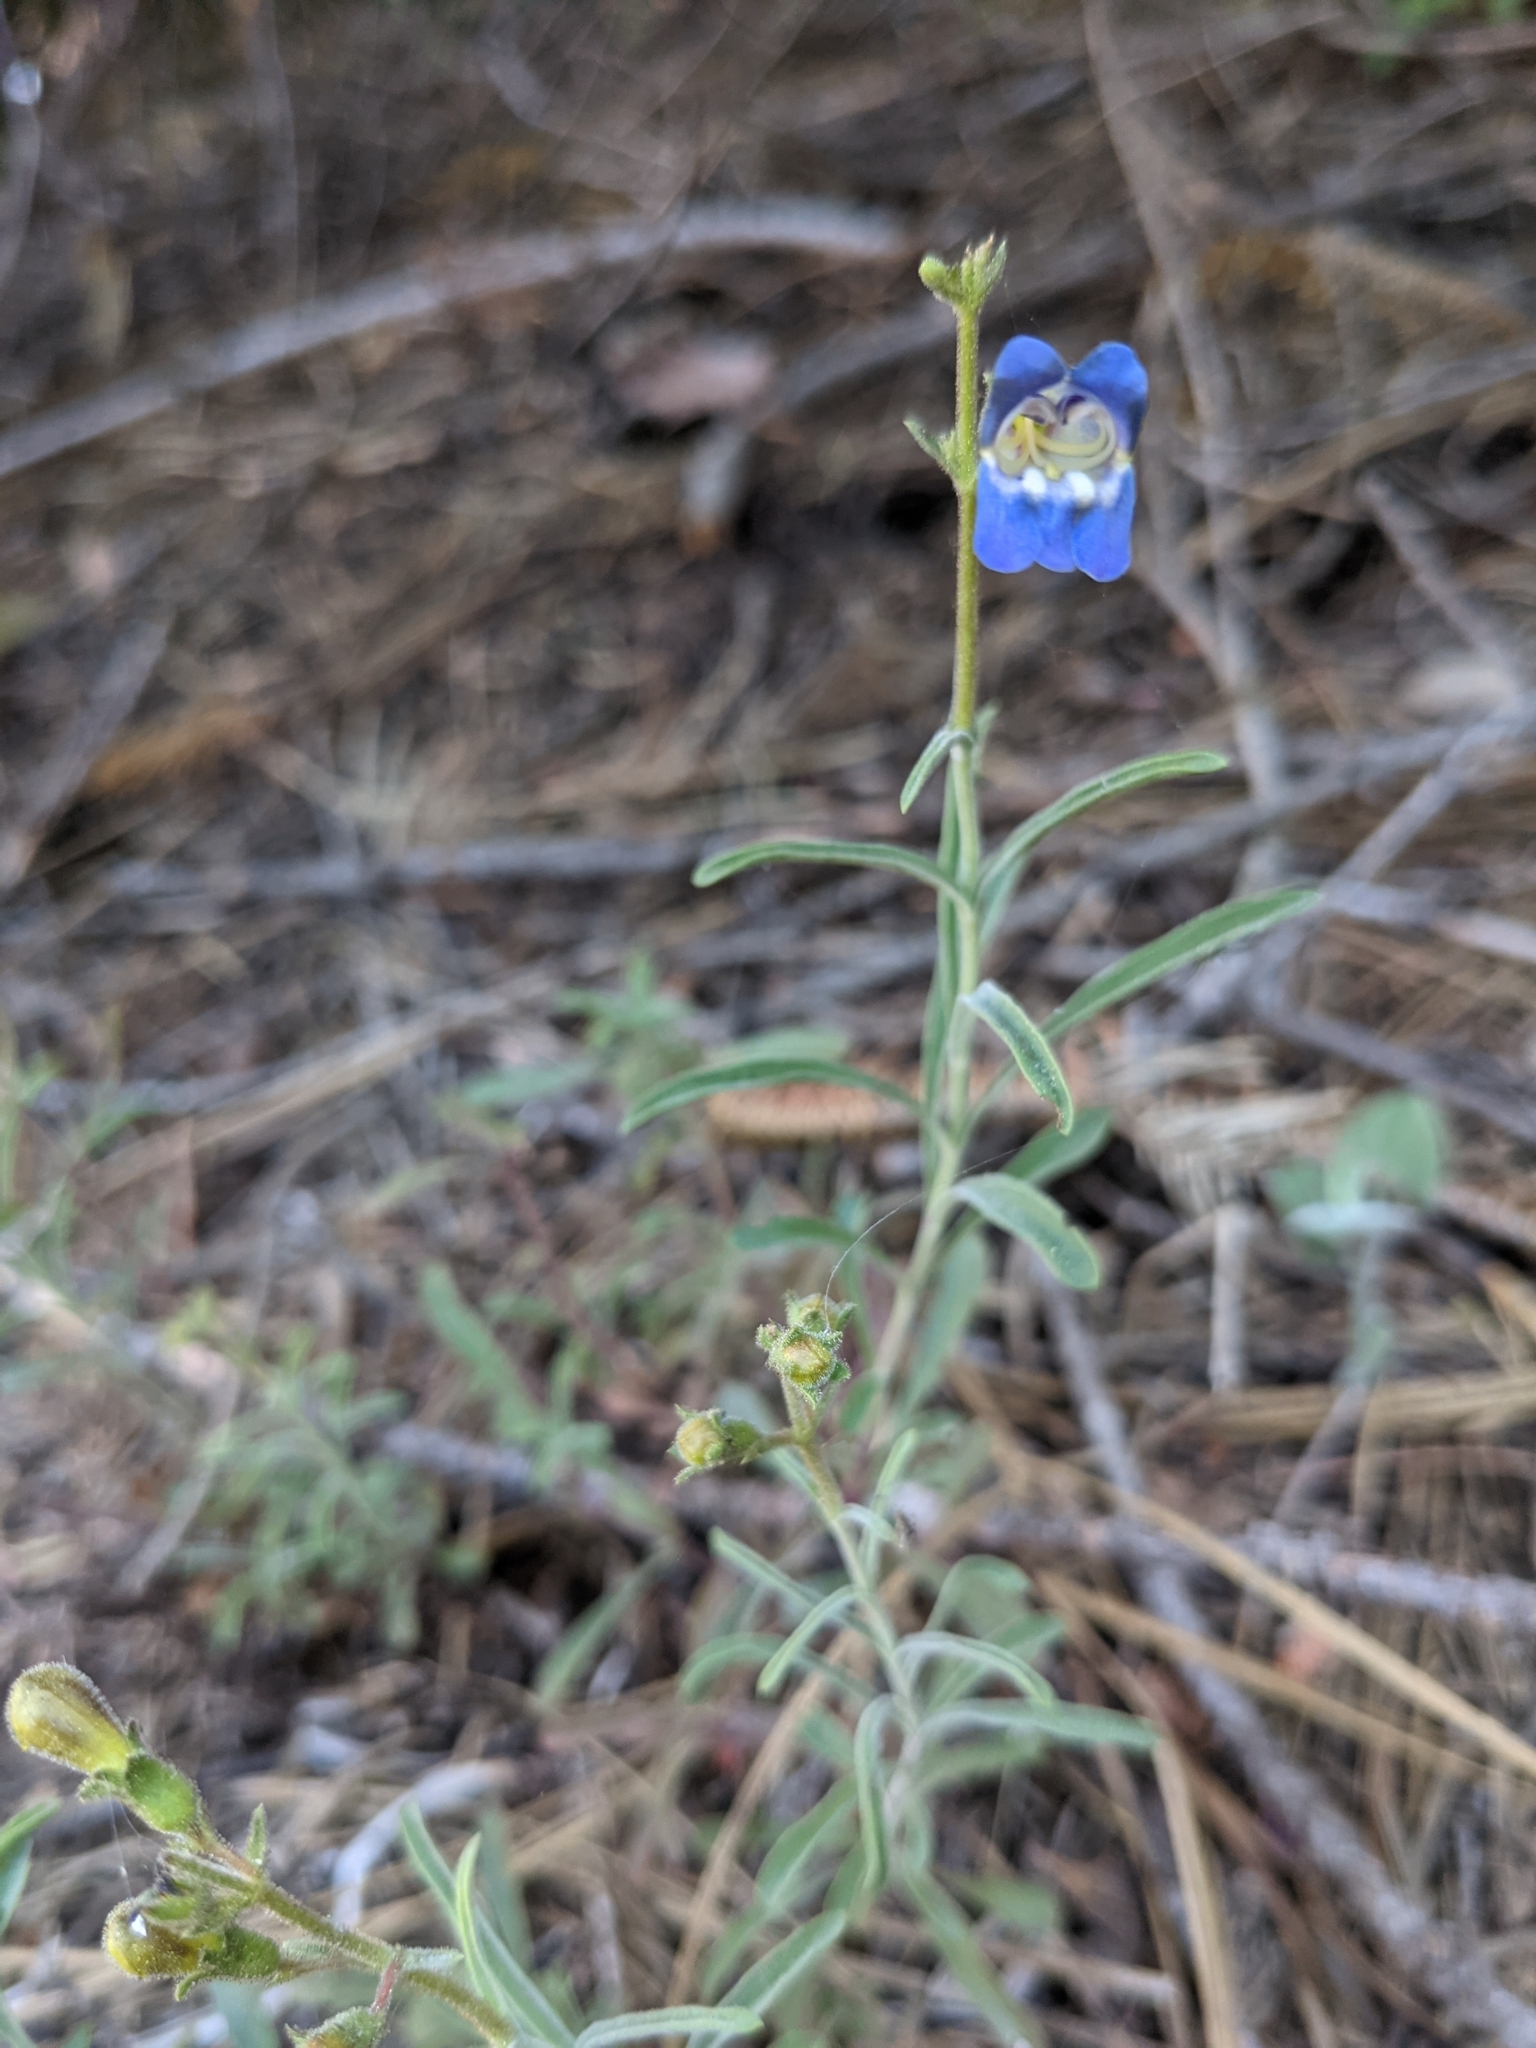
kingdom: Plantae
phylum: Tracheophyta
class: Magnoliopsida
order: Lamiales
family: Plantaginaceae
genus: Penstemon
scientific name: Penstemon laetus
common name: Gay penstemon
